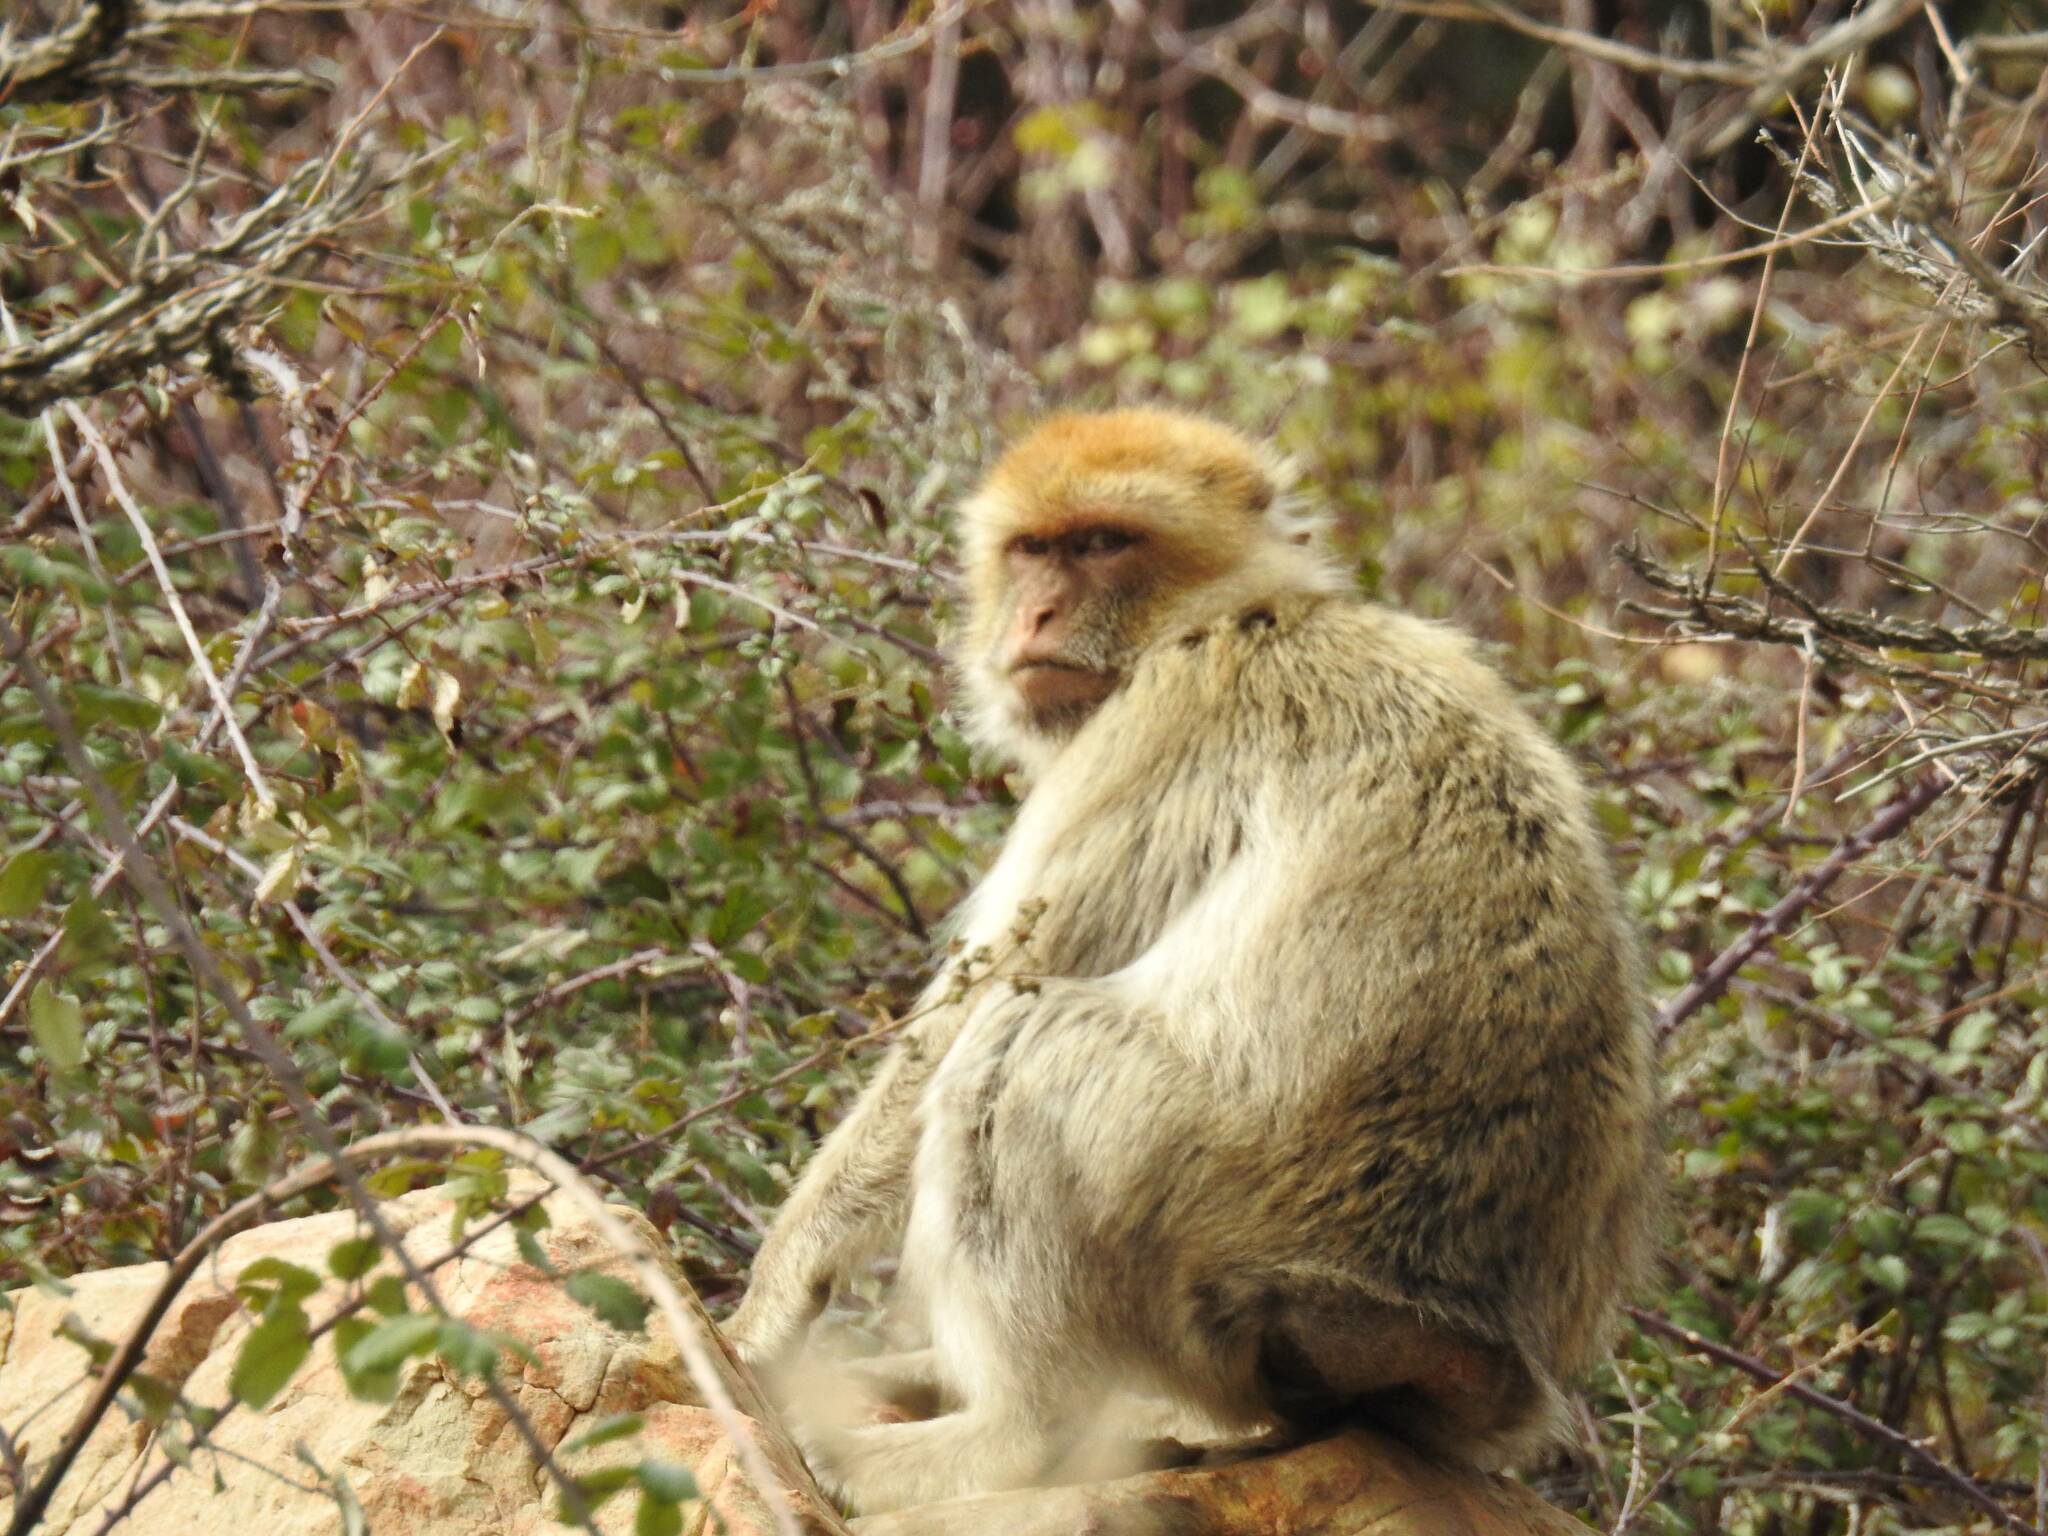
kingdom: Animalia
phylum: Chordata
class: Mammalia
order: Primates
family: Cercopithecidae
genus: Macaca
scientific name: Macaca sylvanus
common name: Barbary macaque
